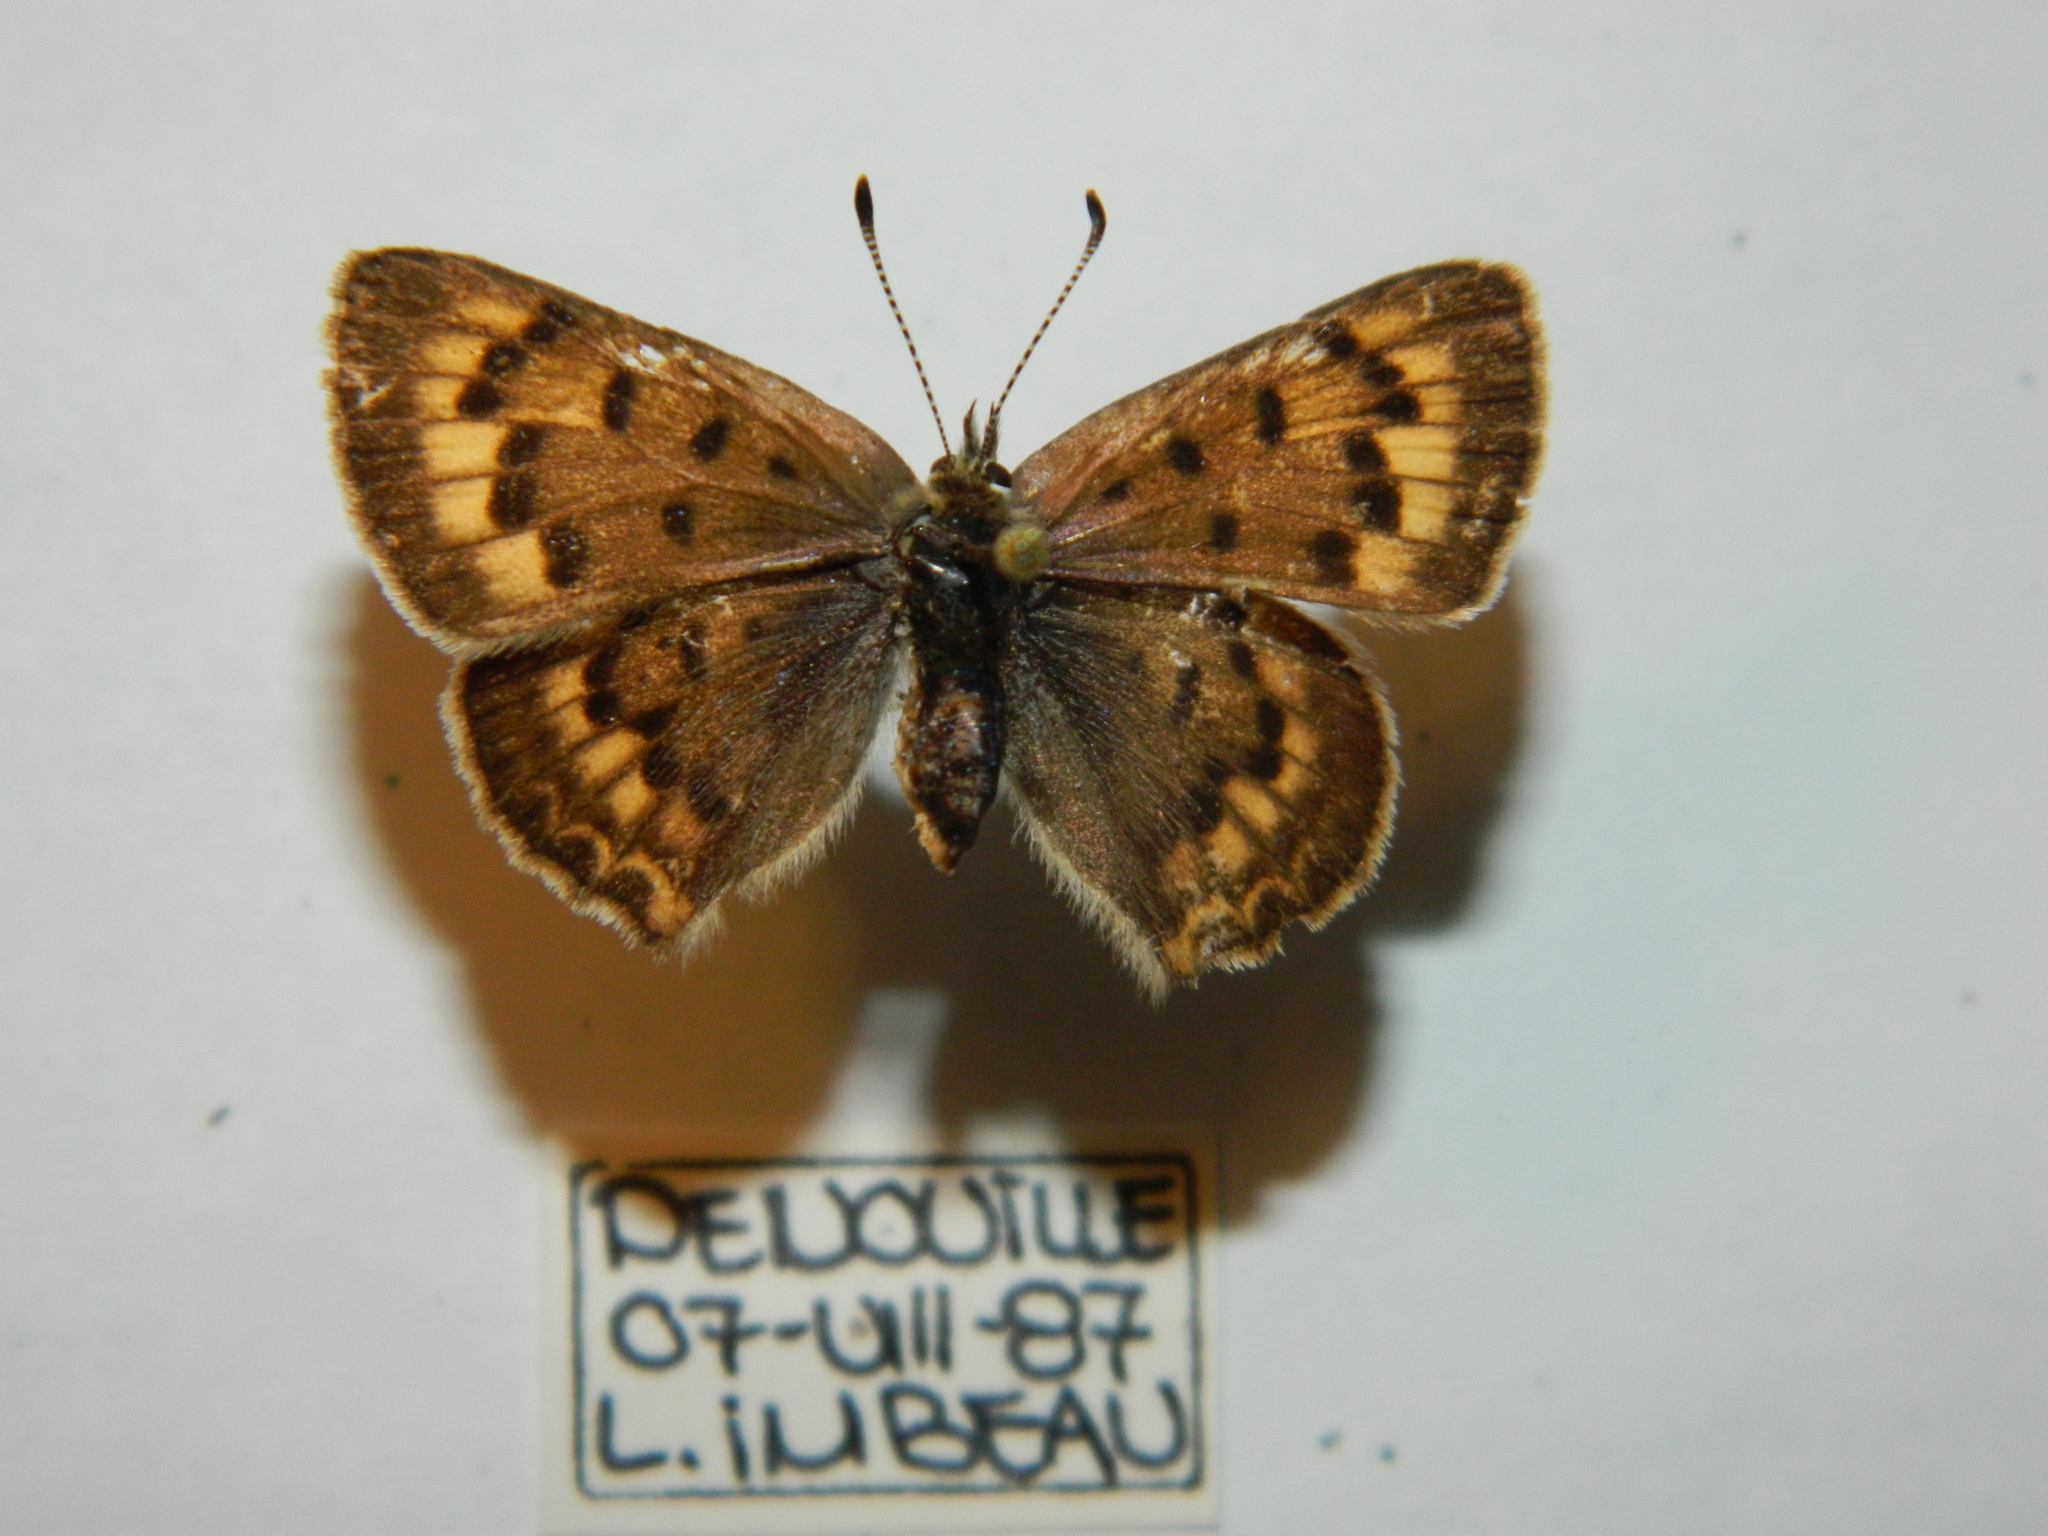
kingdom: Animalia
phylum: Arthropoda
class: Insecta
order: Lepidoptera
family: Lycaenidae
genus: Tharsalea
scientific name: Tharsalea dospassosi
